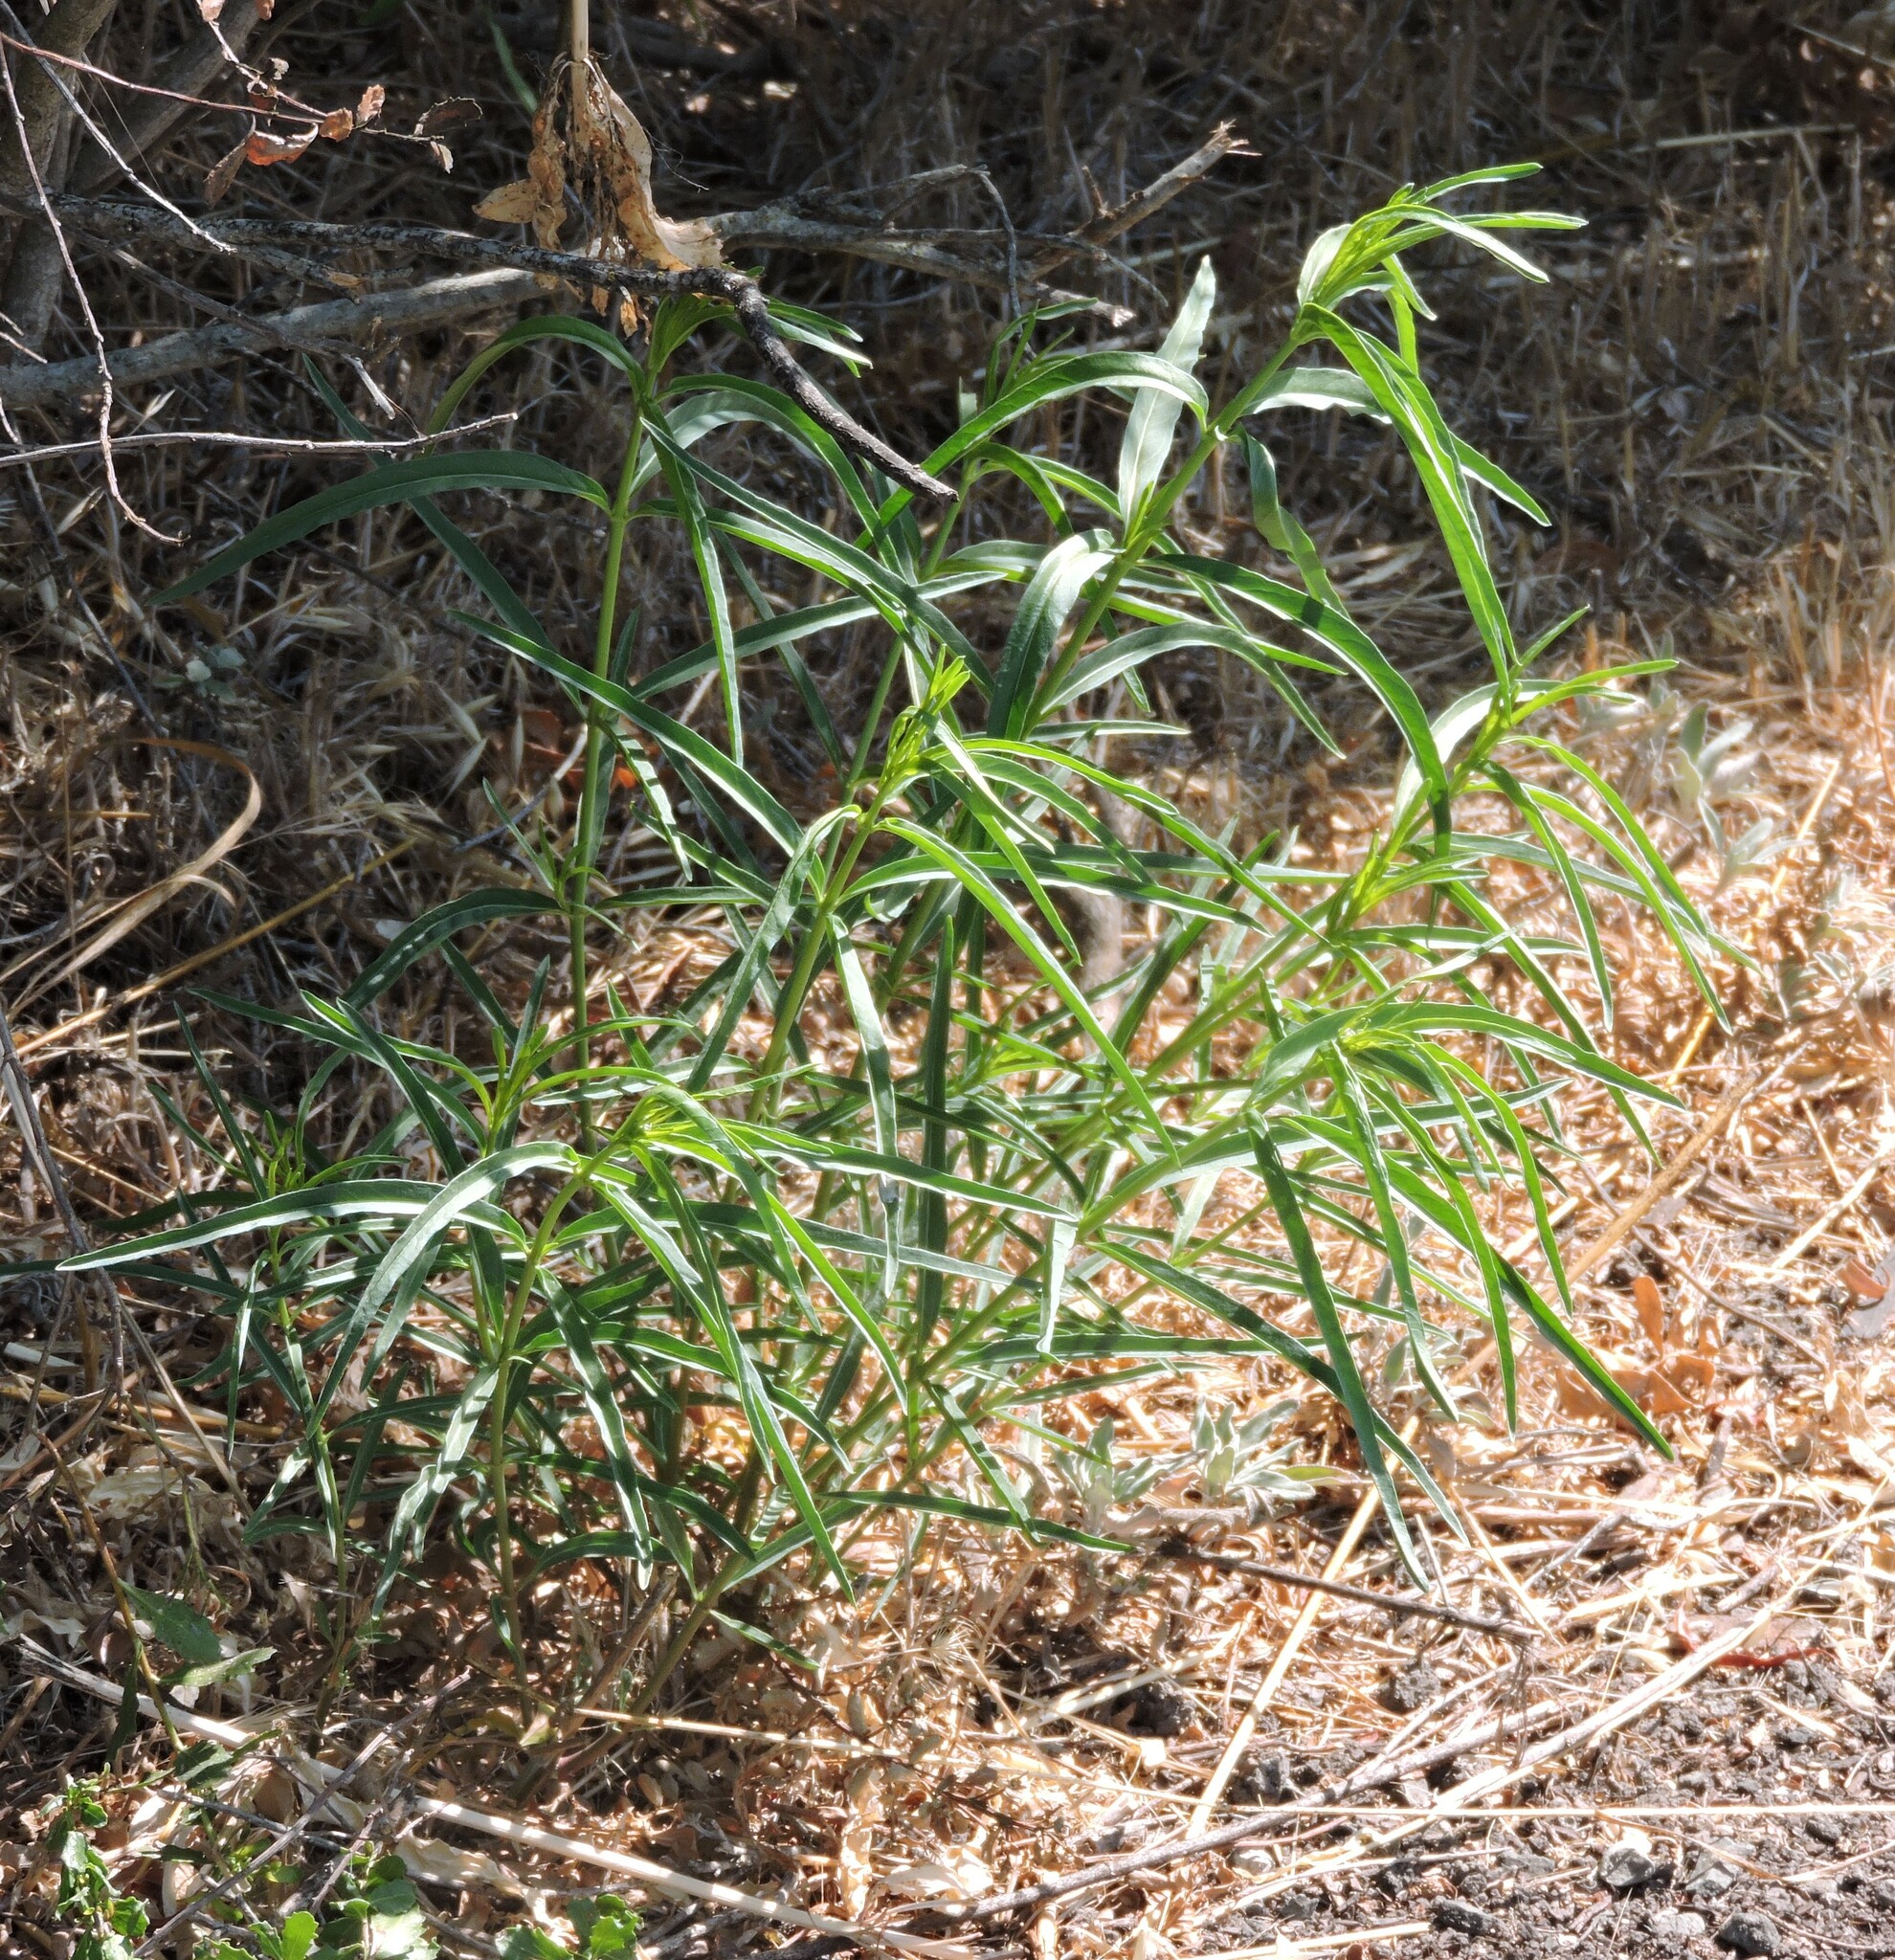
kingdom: Plantae
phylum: Tracheophyta
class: Magnoliopsida
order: Gentianales
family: Apocynaceae
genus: Asclepias
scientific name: Asclepias fascicularis
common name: Mexican milkweed
